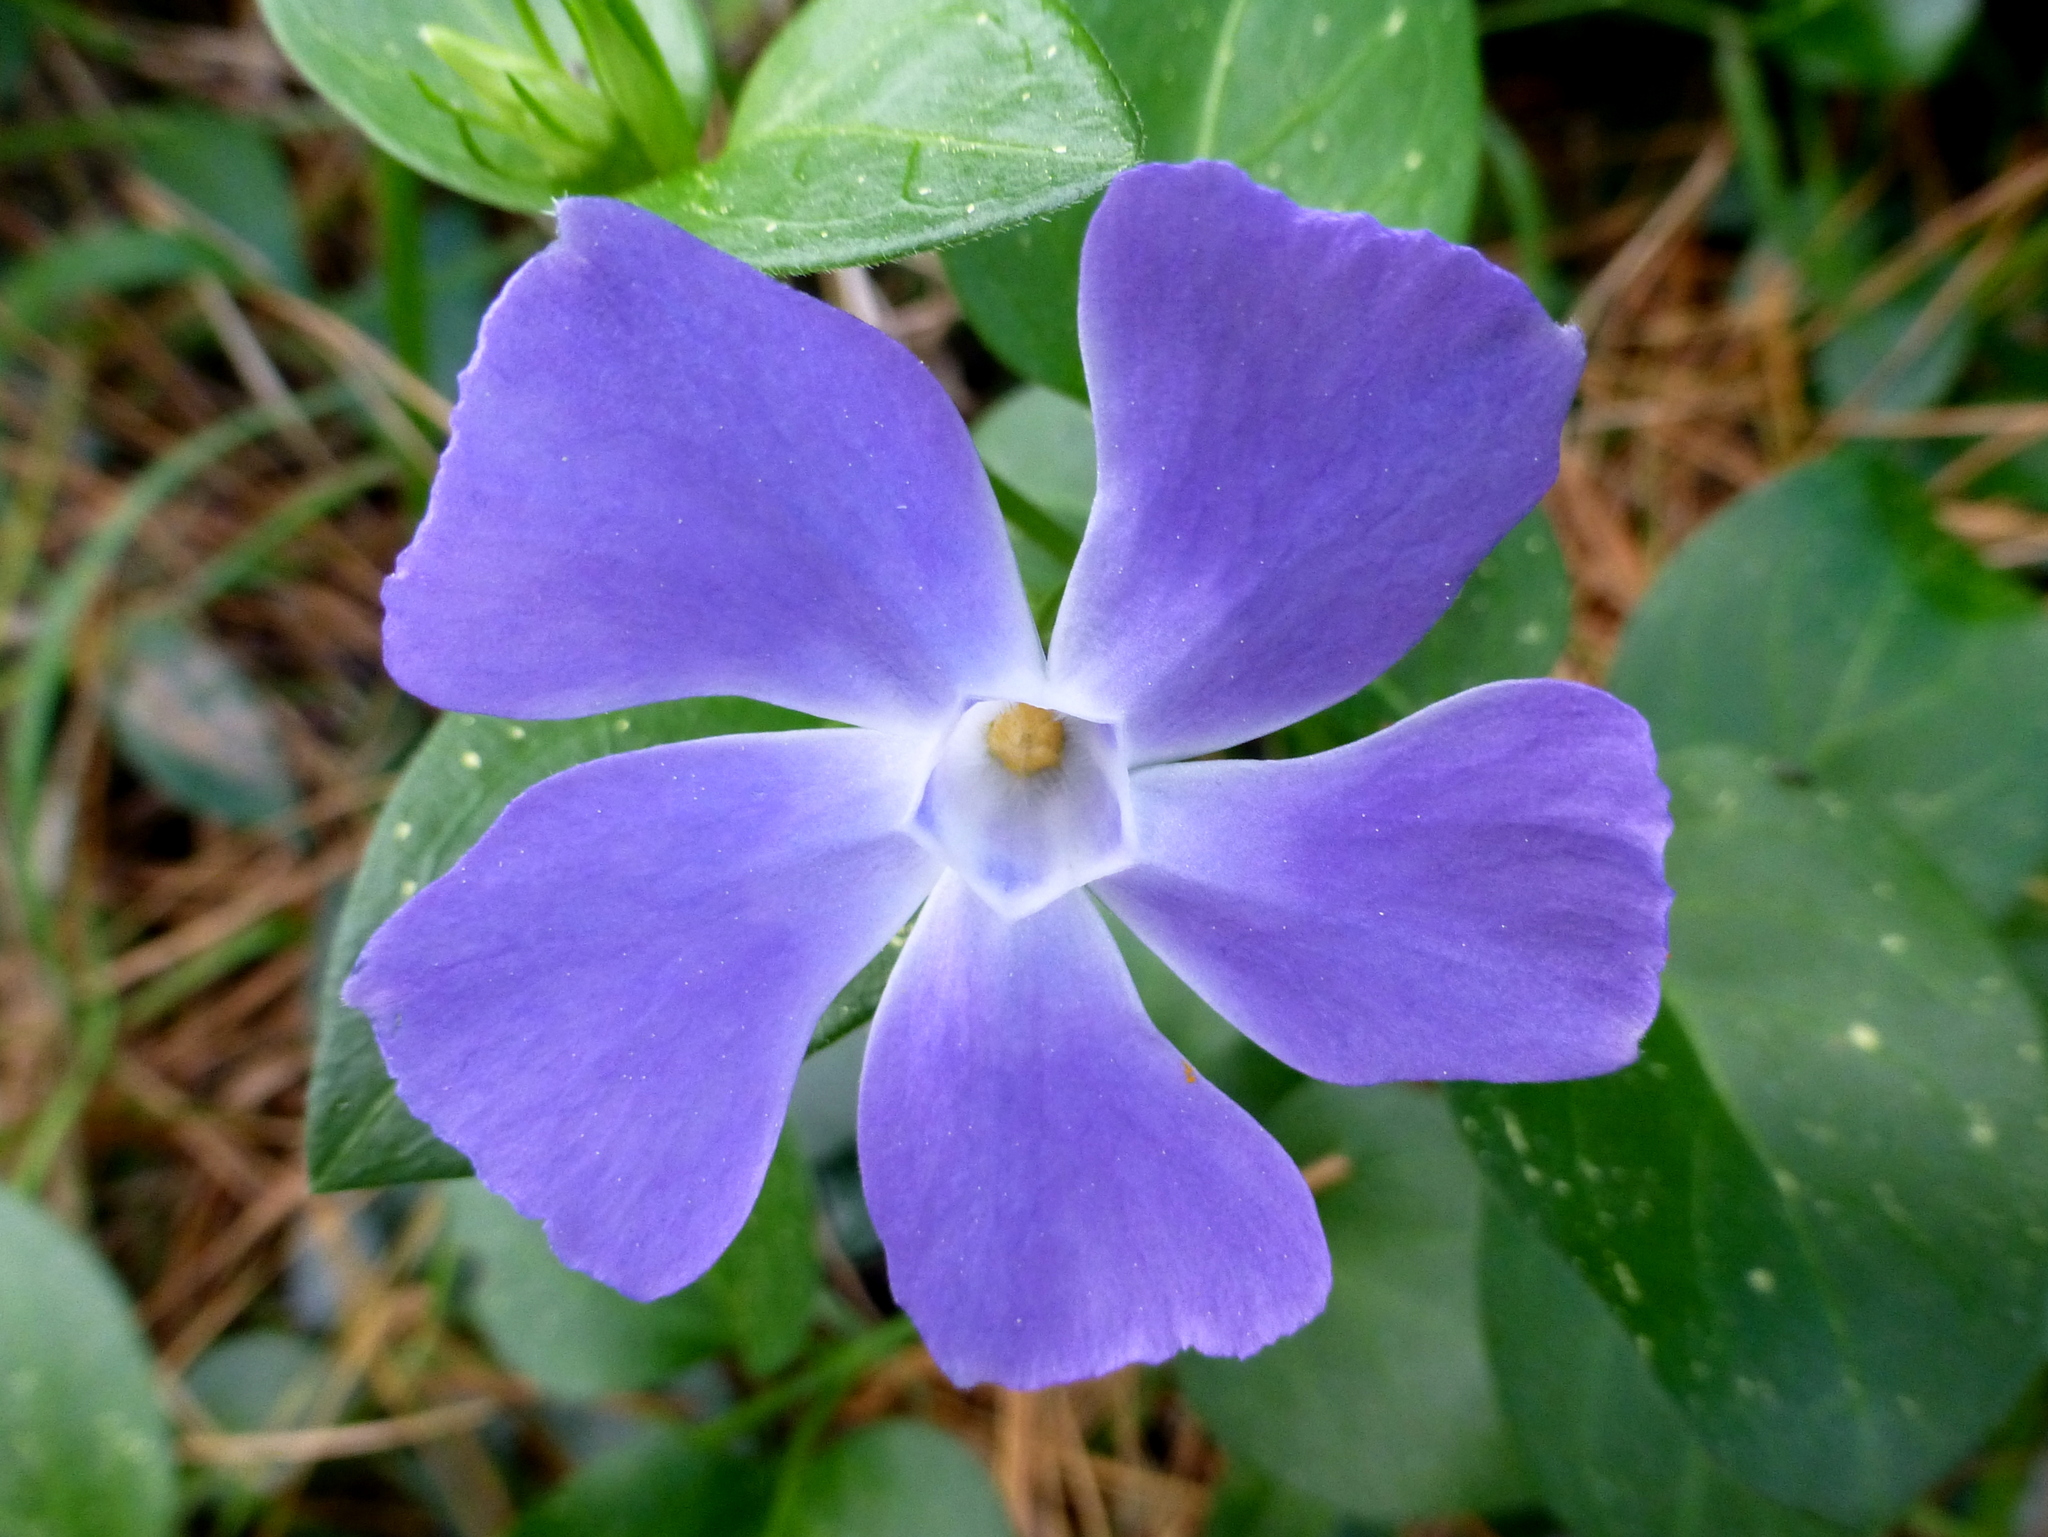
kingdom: Plantae
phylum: Tracheophyta
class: Magnoliopsida
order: Gentianales
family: Apocynaceae
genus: Vinca
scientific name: Vinca major
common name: Greater periwinkle
